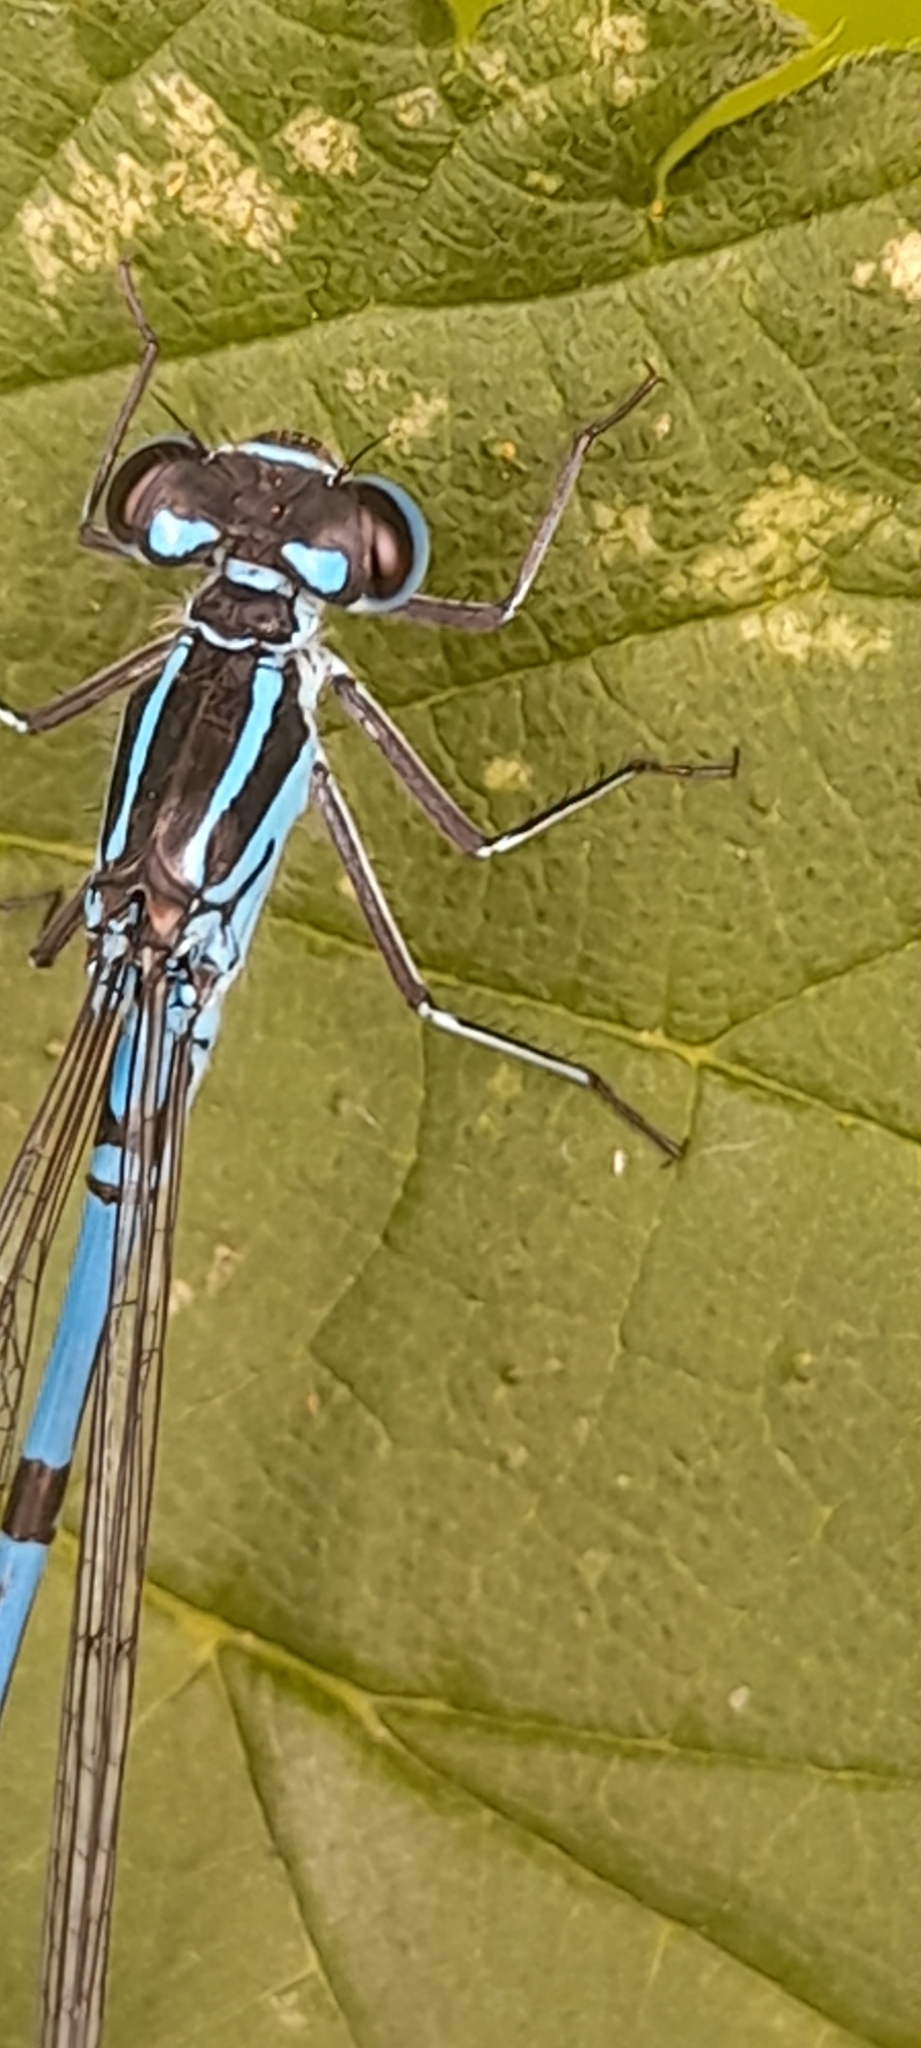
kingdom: Animalia
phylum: Arthropoda
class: Insecta
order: Odonata
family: Coenagrionidae
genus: Coenagrion
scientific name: Coenagrion puella
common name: Azure damselfly
